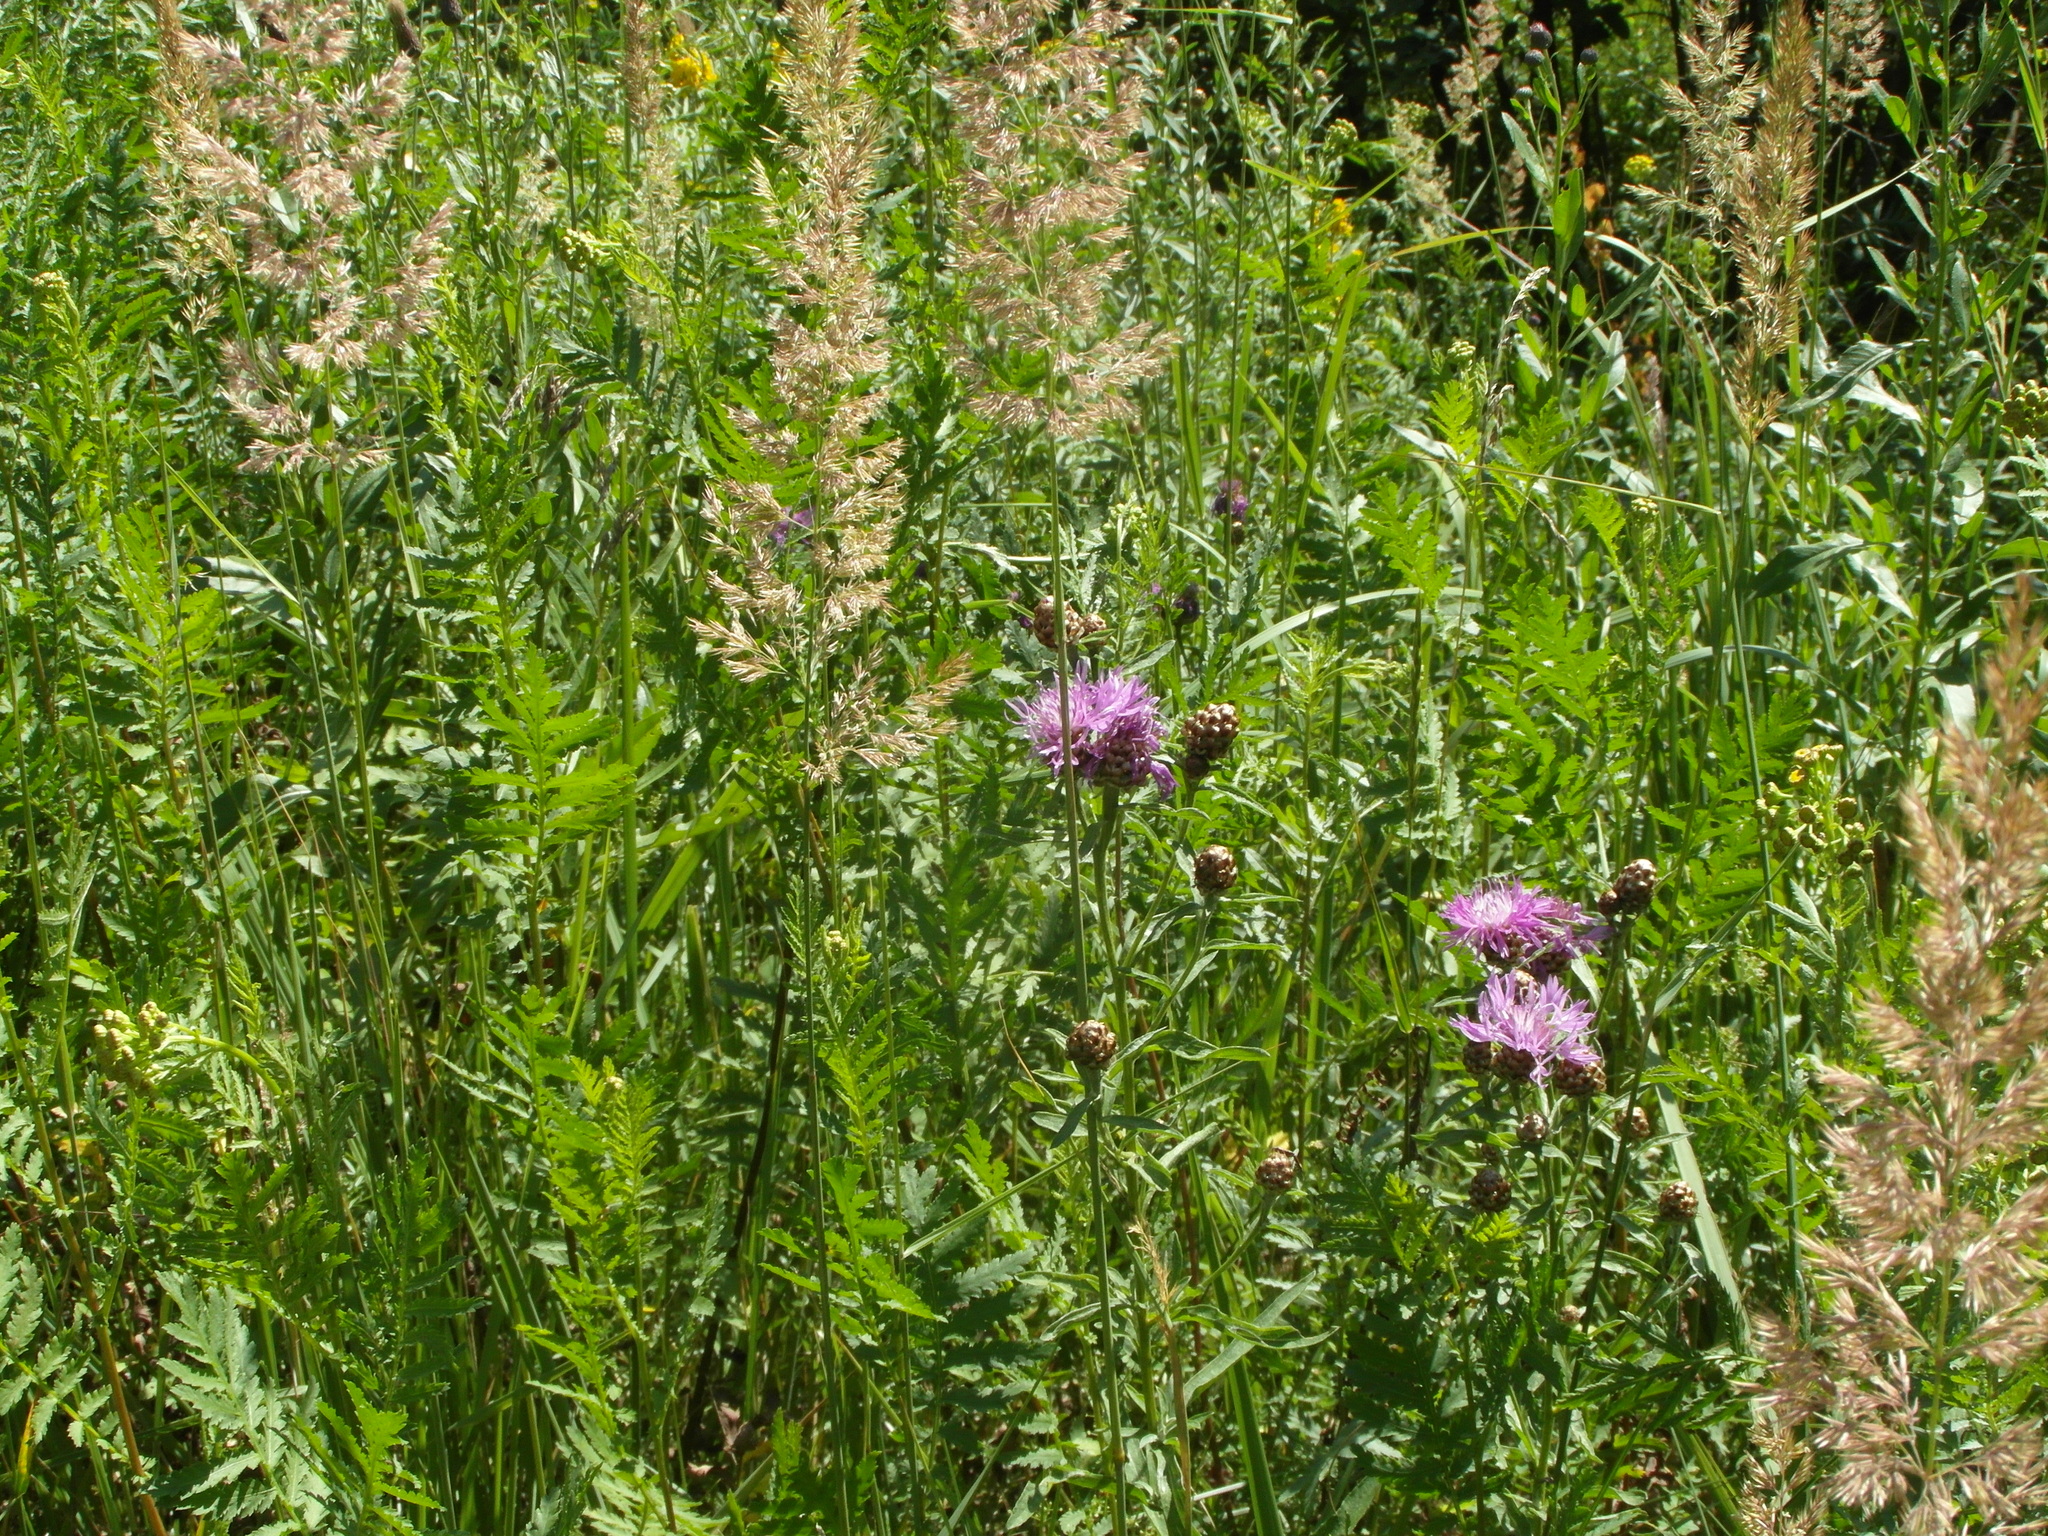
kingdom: Plantae
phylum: Tracheophyta
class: Magnoliopsida
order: Asterales
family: Asteraceae
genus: Centaurea
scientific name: Centaurea jacea
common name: Brown knapweed
